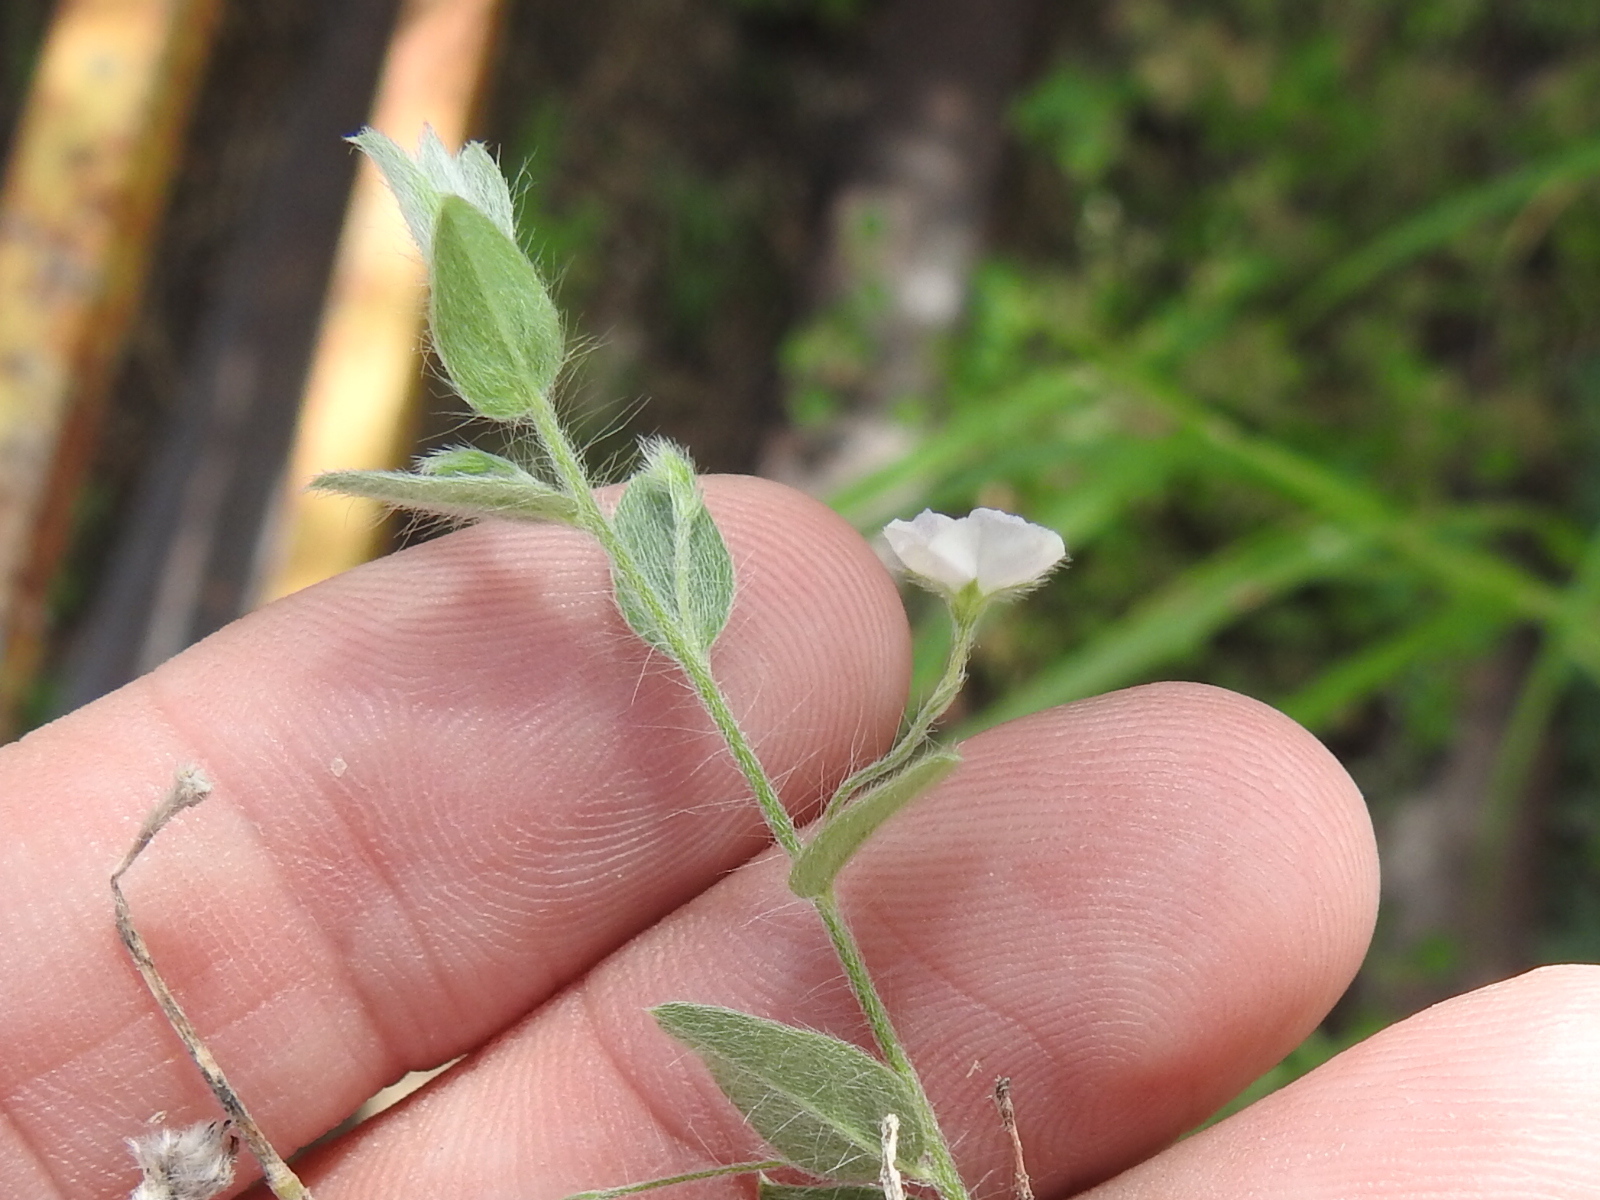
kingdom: Plantae
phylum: Tracheophyta
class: Magnoliopsida
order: Solanales
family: Convolvulaceae
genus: Evolvulus
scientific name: Evolvulus alsinoides
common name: Slender dwarf morning-glory
